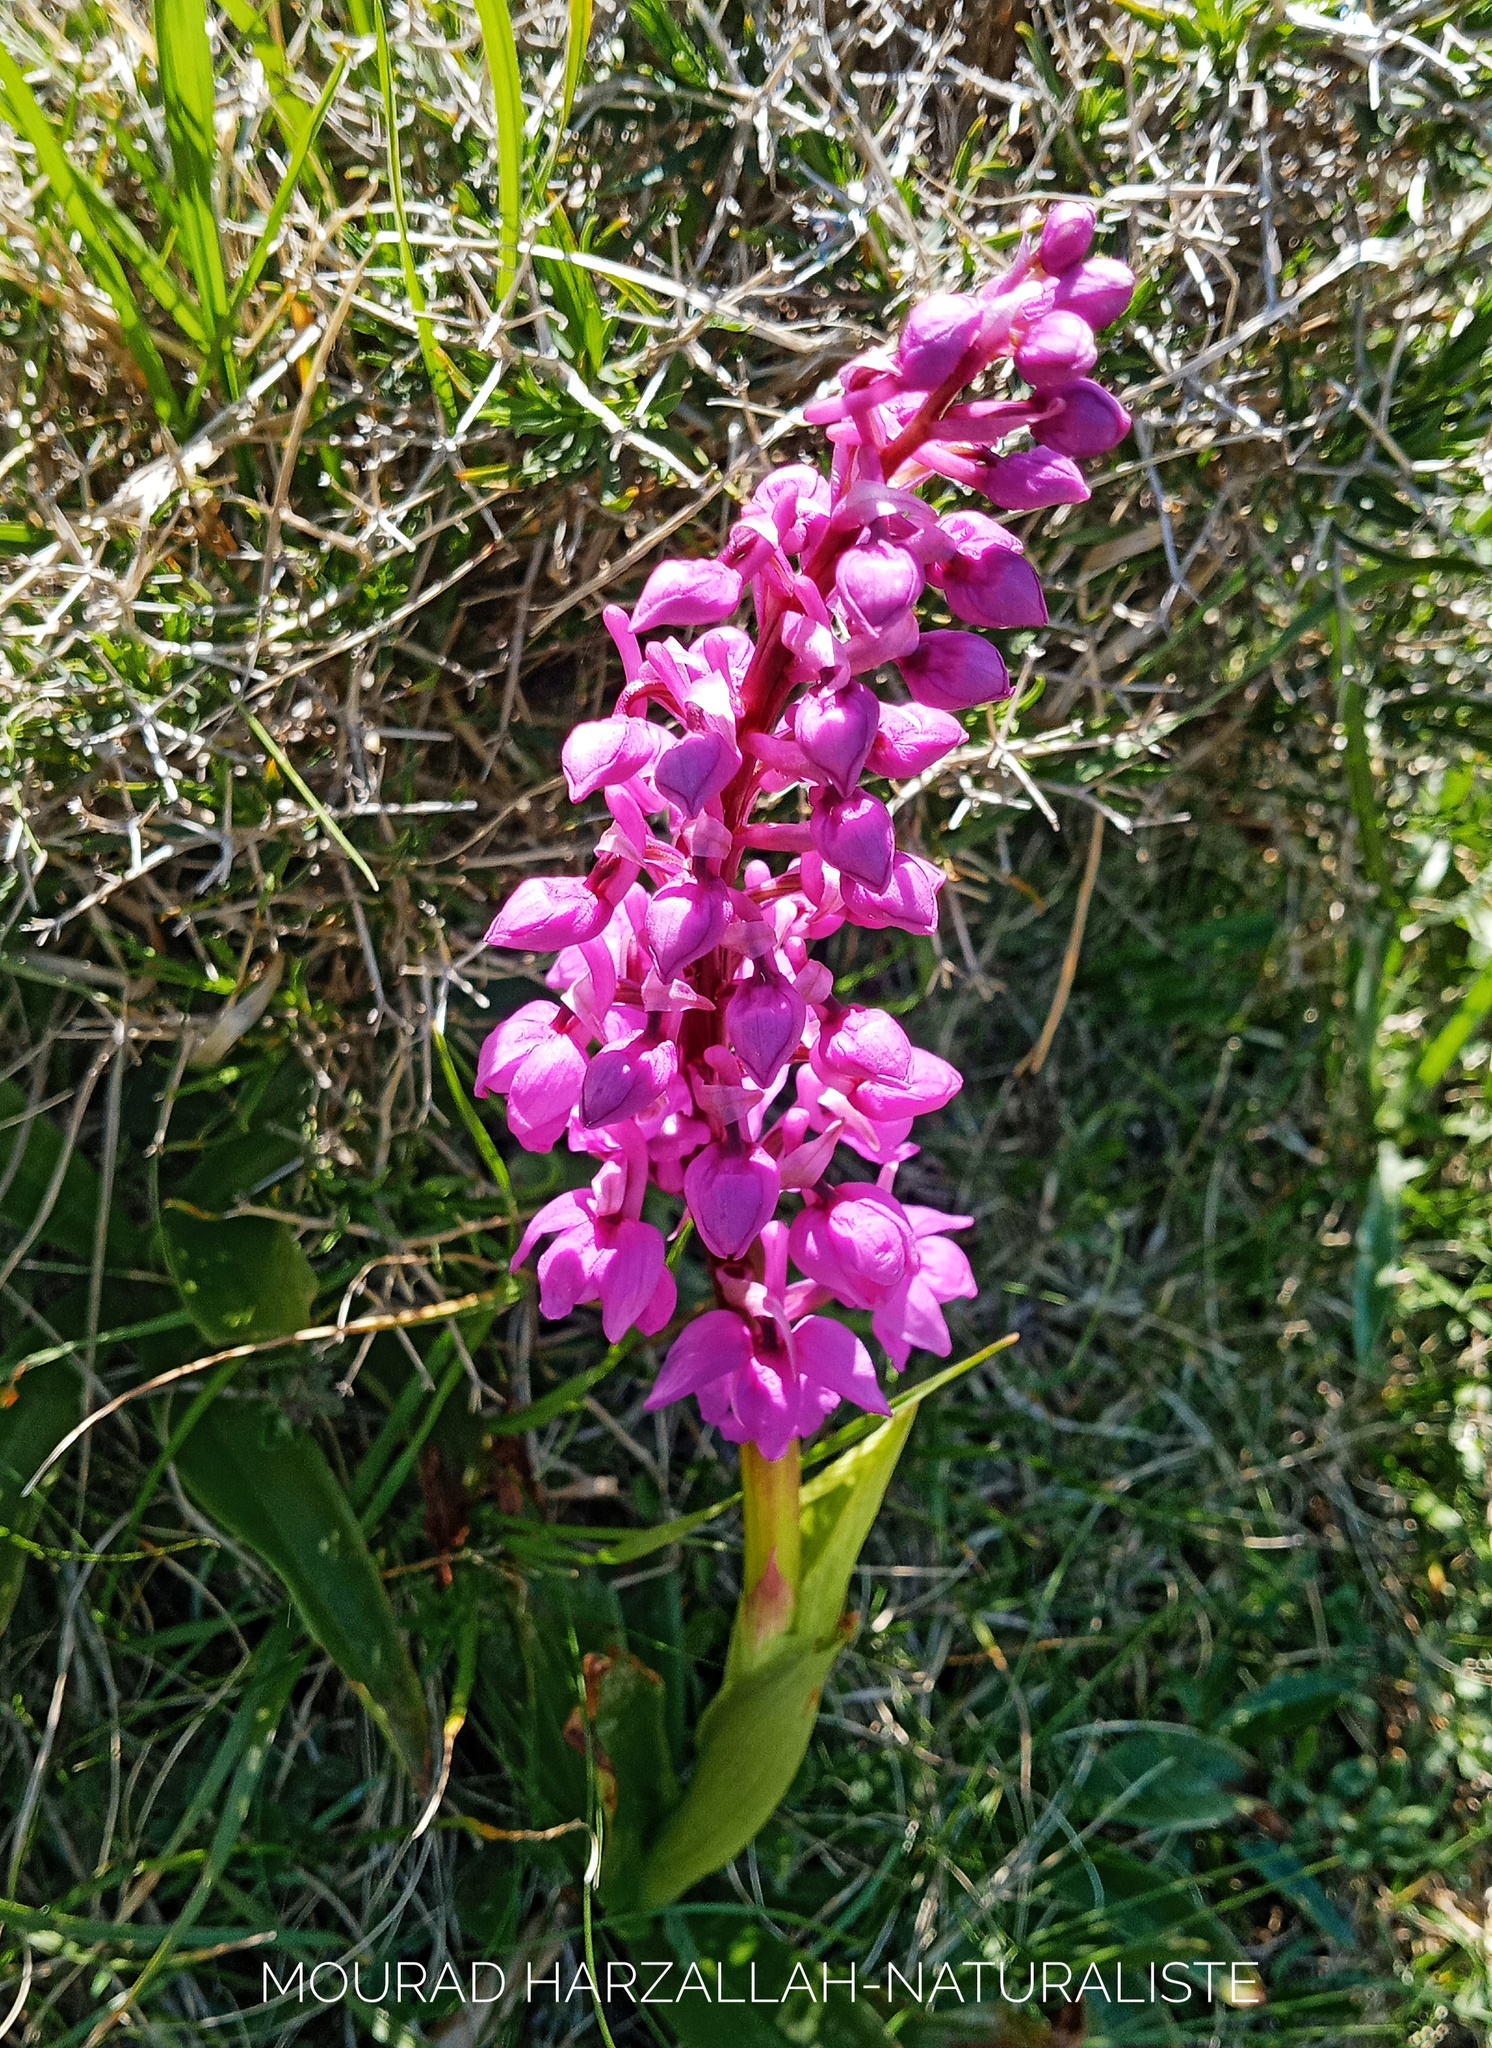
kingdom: Plantae
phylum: Tracheophyta
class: Liliopsida
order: Asparagales
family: Orchidaceae
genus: Orchis
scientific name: Orchis mascula
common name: Early-purple orchid
